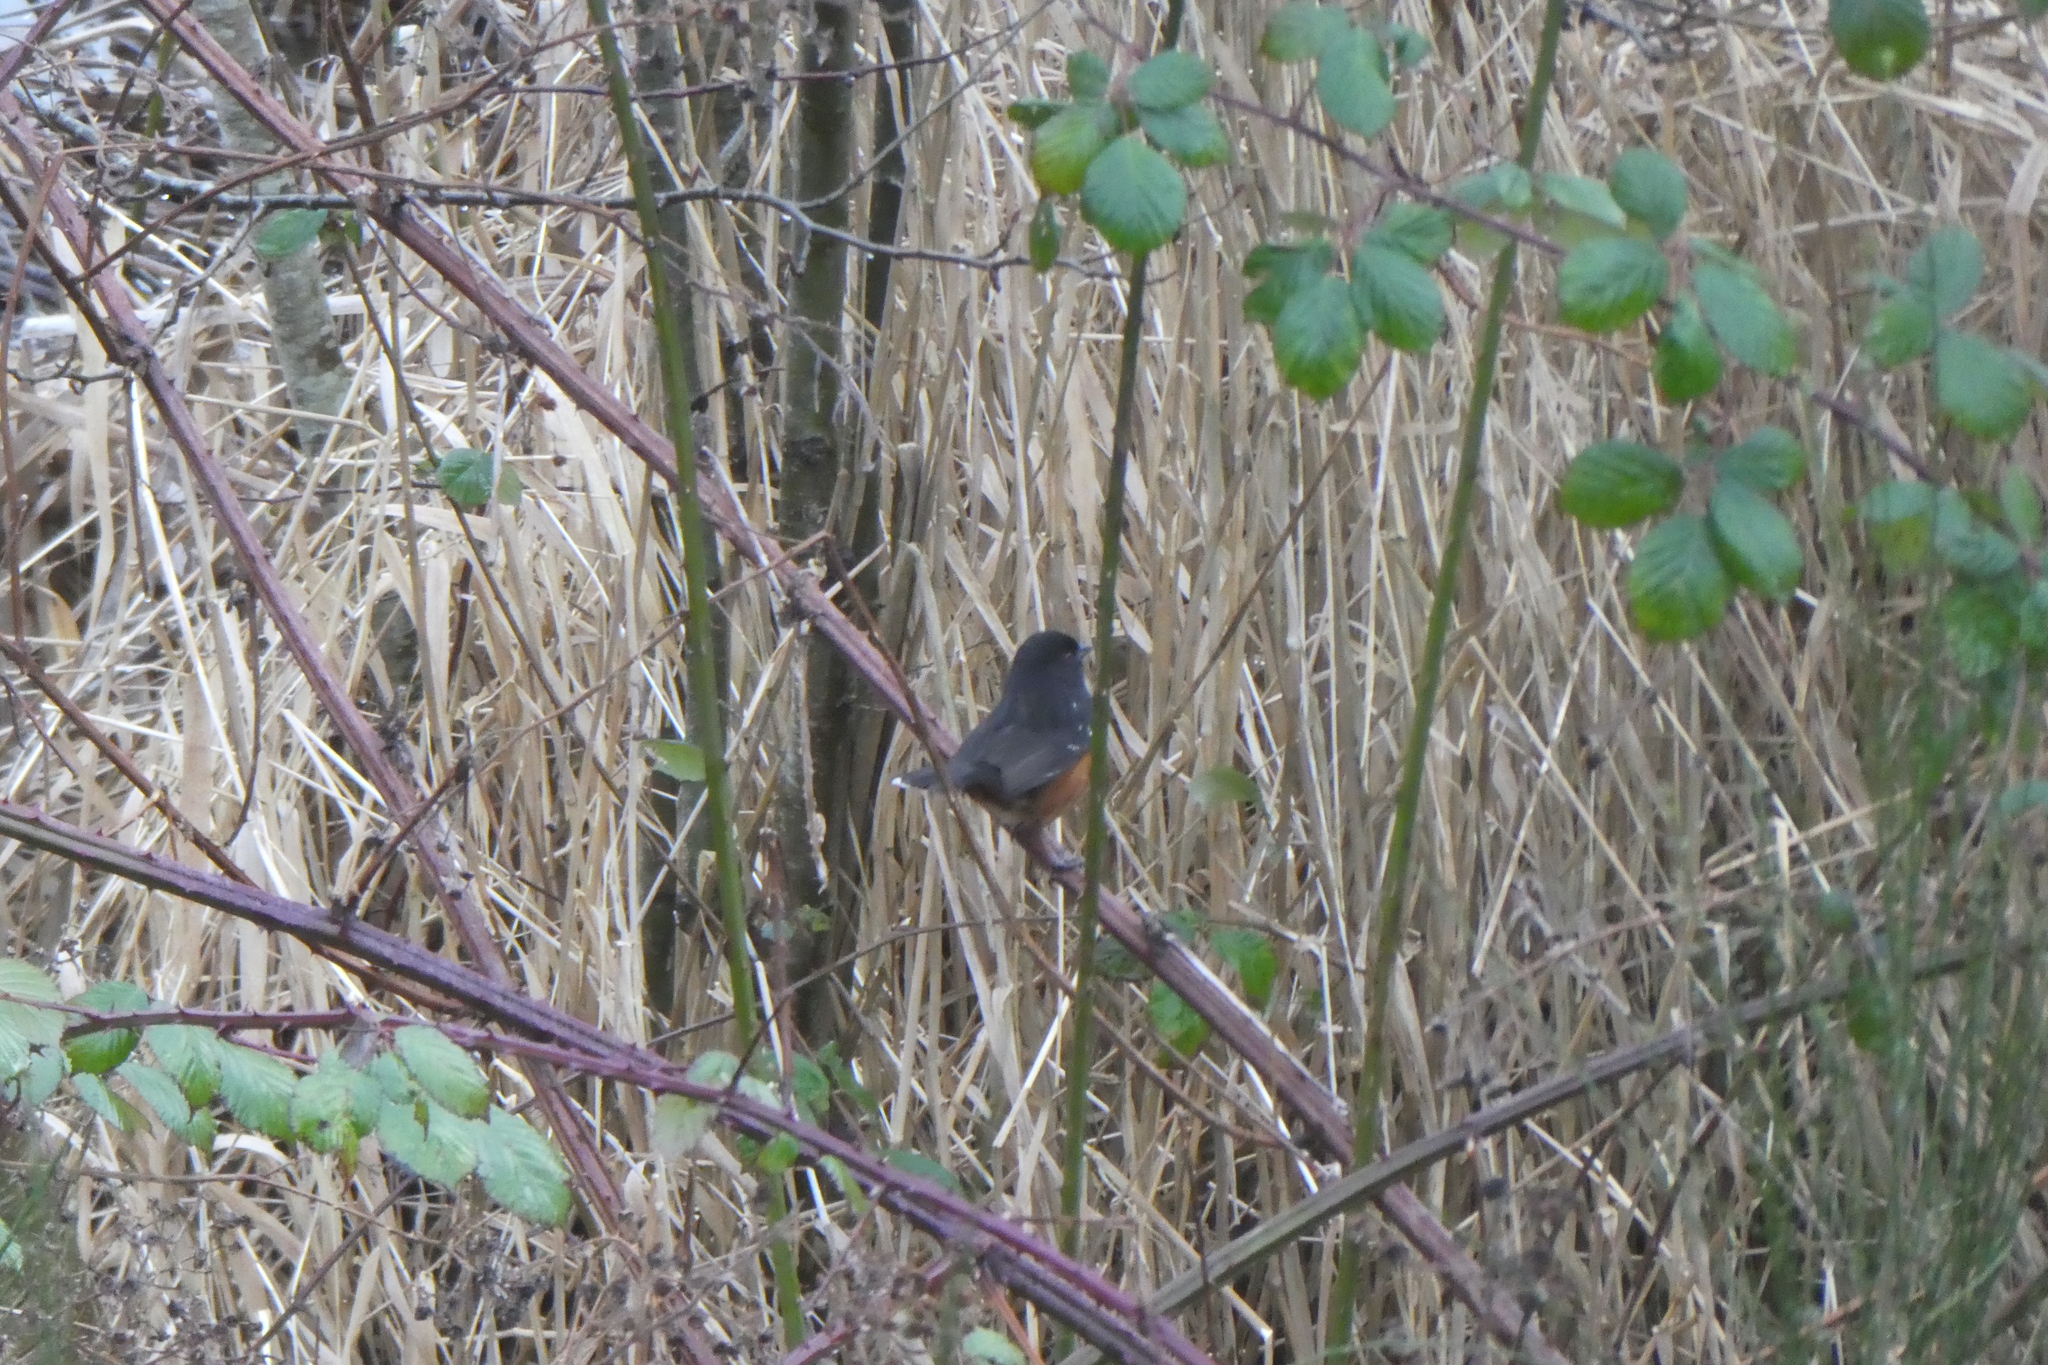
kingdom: Animalia
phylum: Chordata
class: Aves
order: Passeriformes
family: Passerellidae
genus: Pipilo
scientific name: Pipilo maculatus
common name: Spotted towhee
